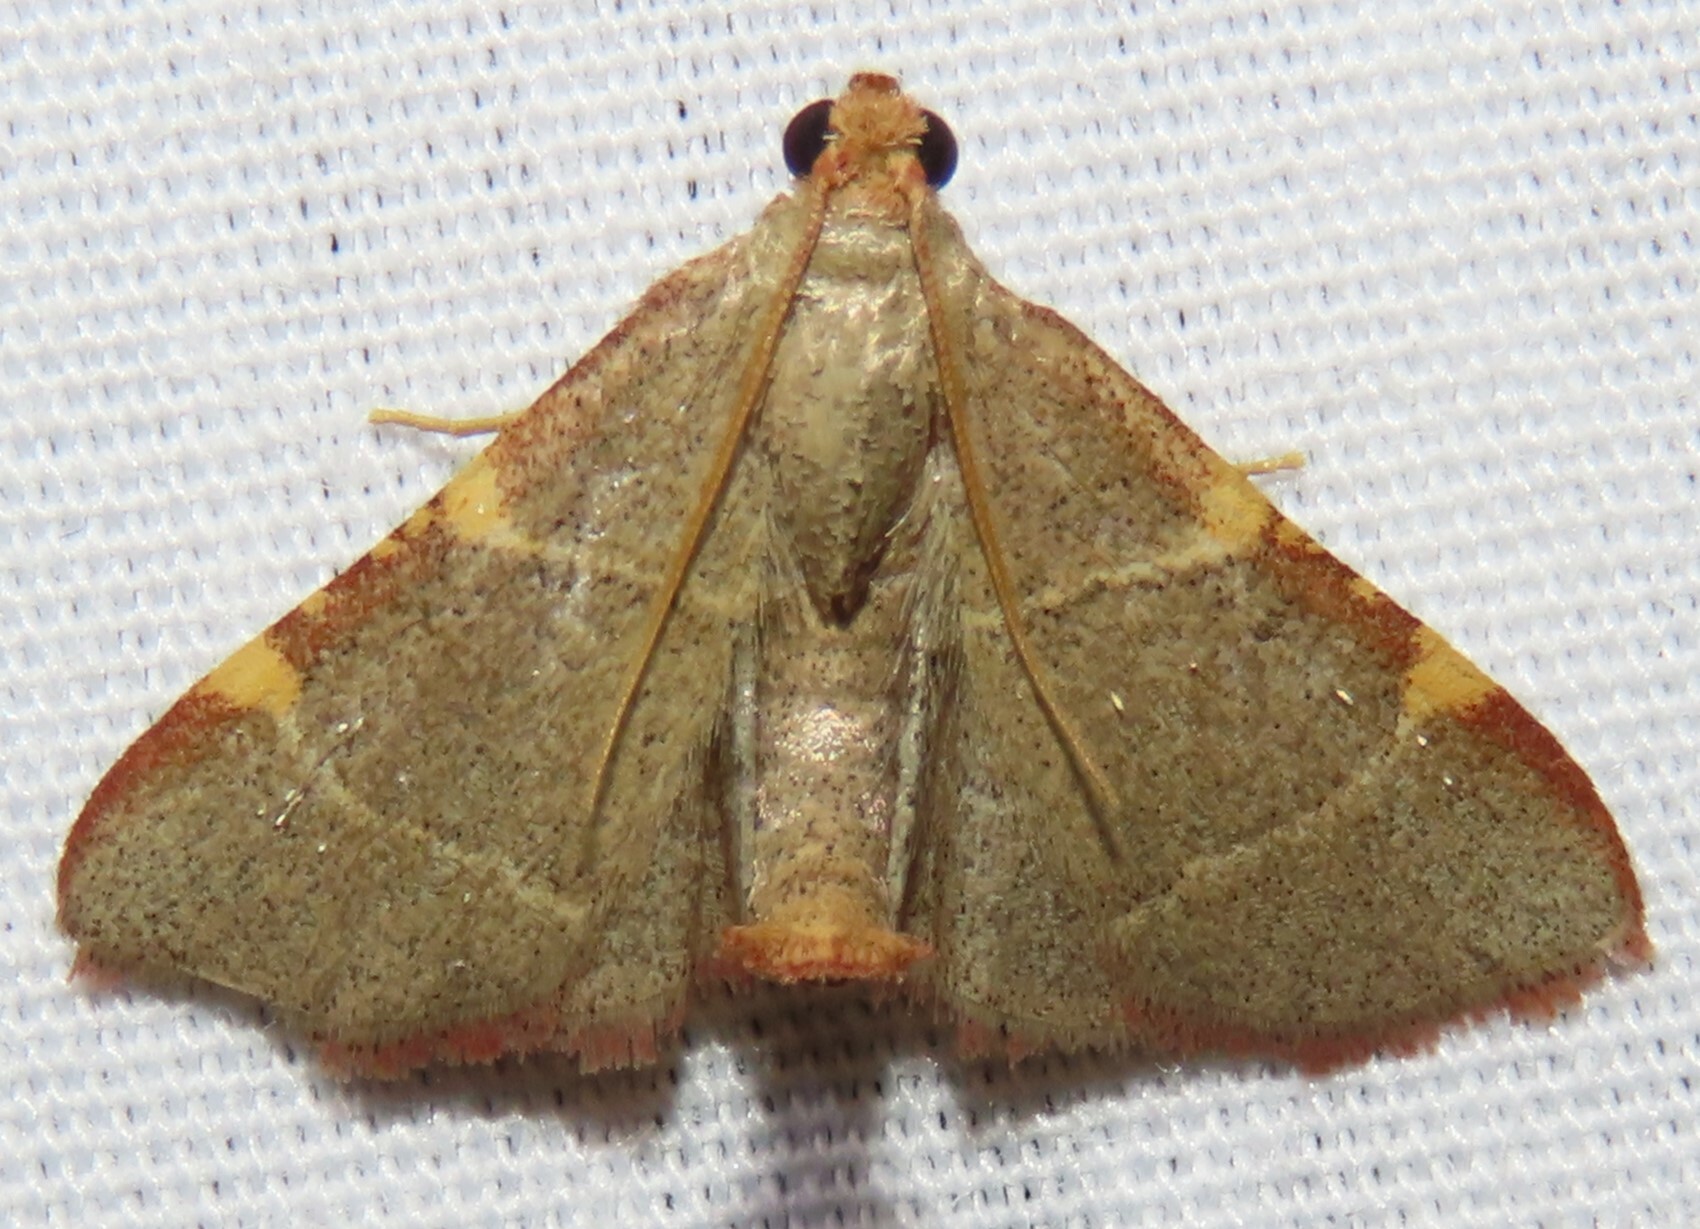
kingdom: Animalia
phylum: Arthropoda
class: Insecta
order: Lepidoptera
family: Pyralidae
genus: Hypsopygia
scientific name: Hypsopygia binodulalis
